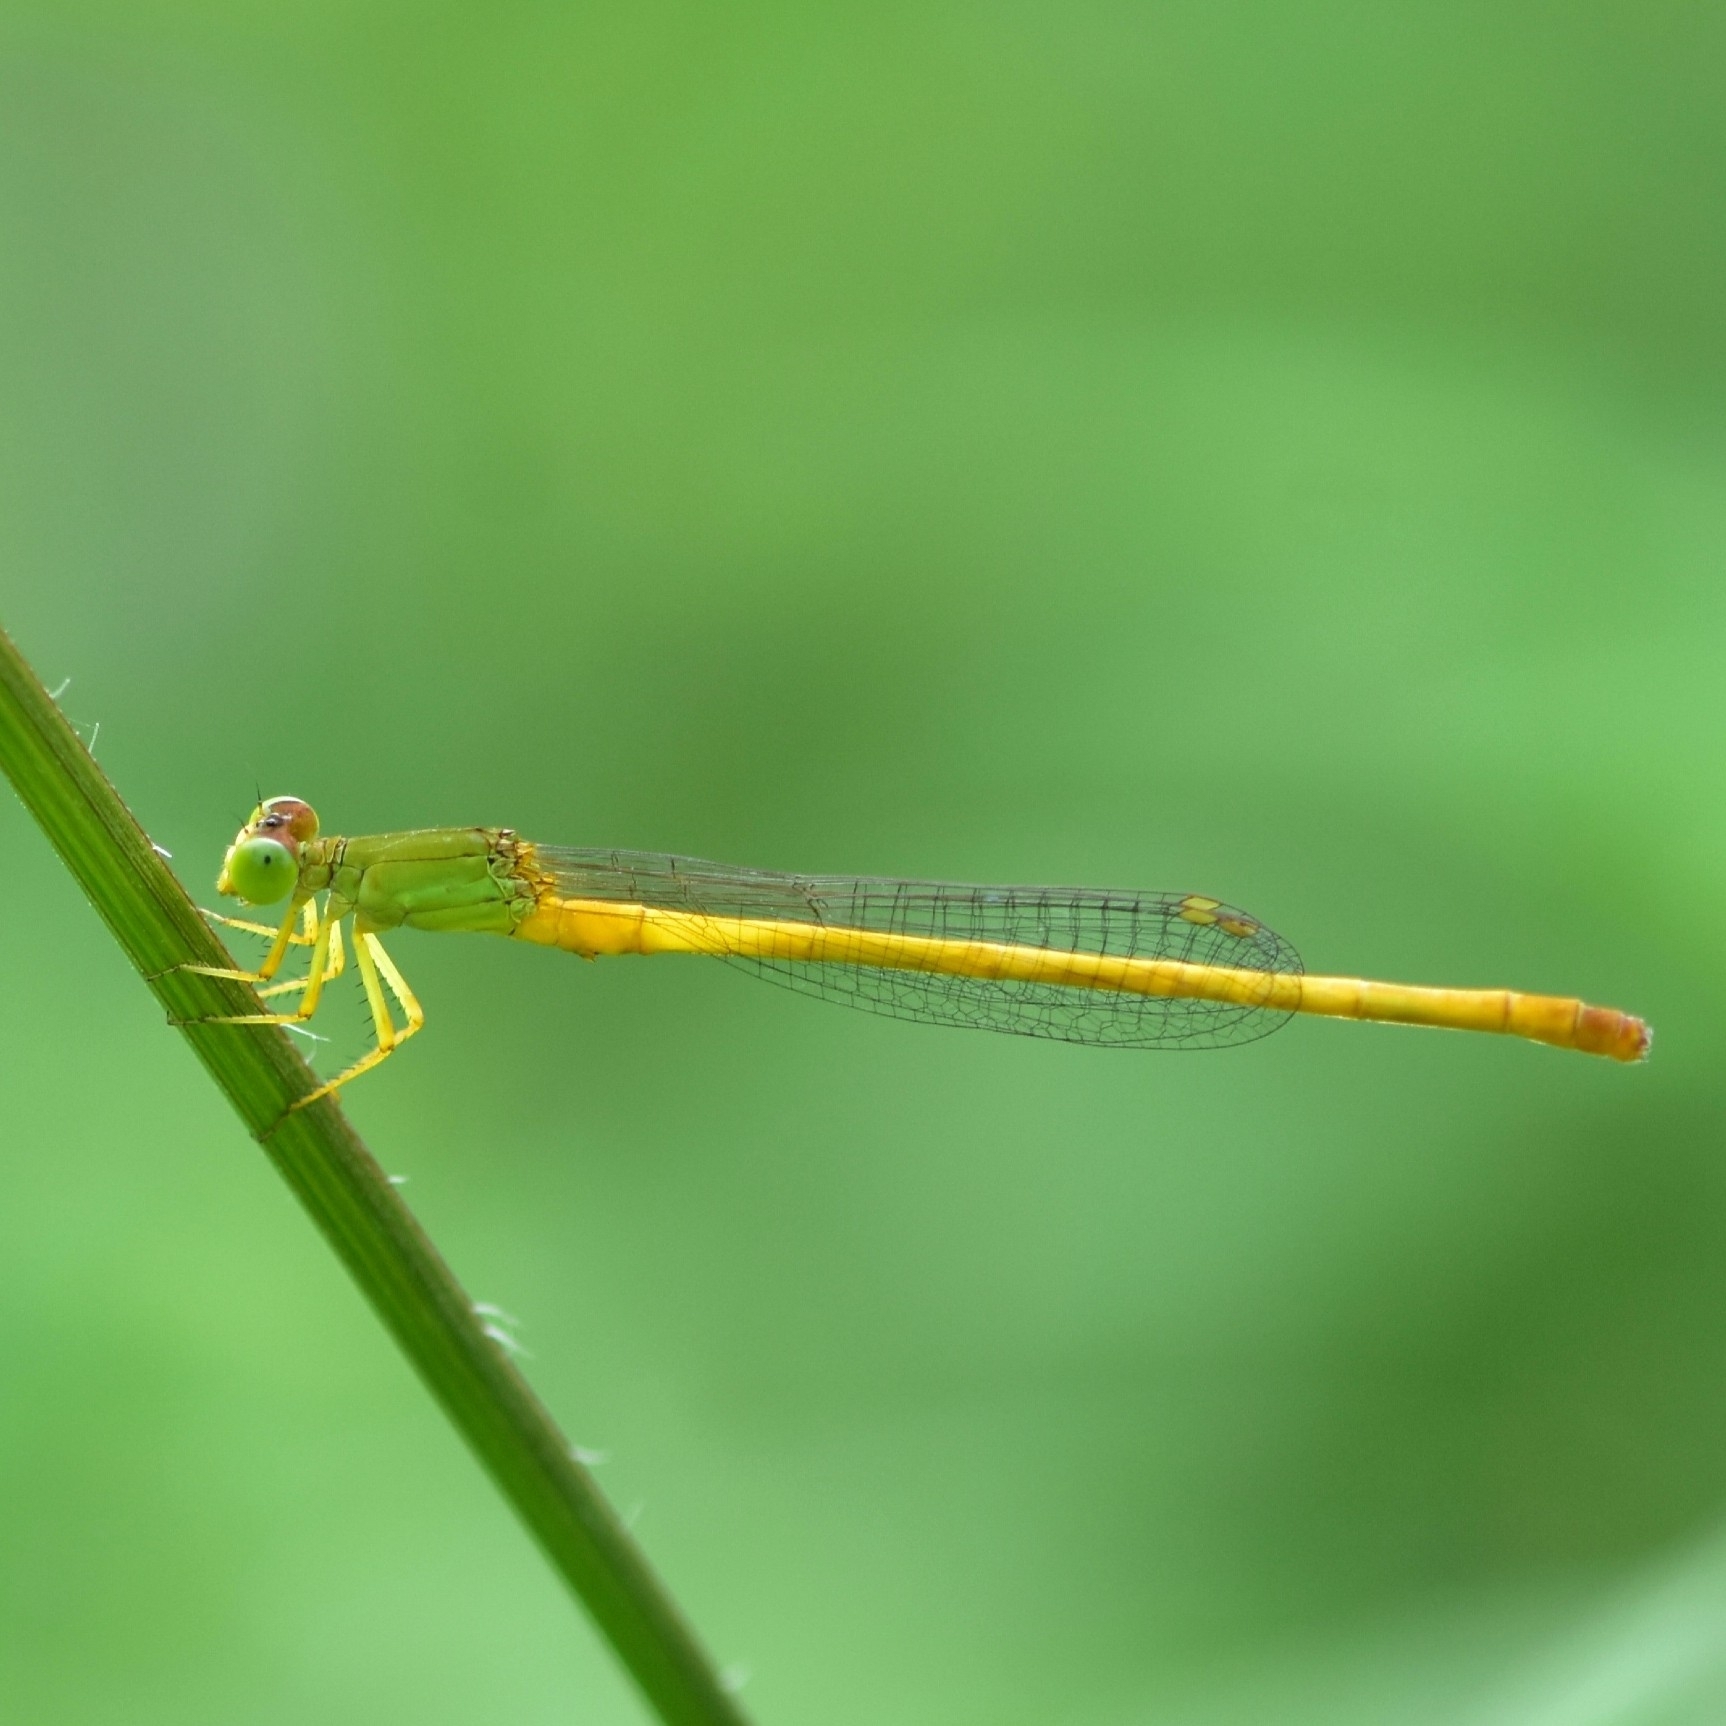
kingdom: Animalia
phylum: Arthropoda
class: Insecta
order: Odonata
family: Coenagrionidae
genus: Ceriagrion
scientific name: Ceriagrion coromandelianum
